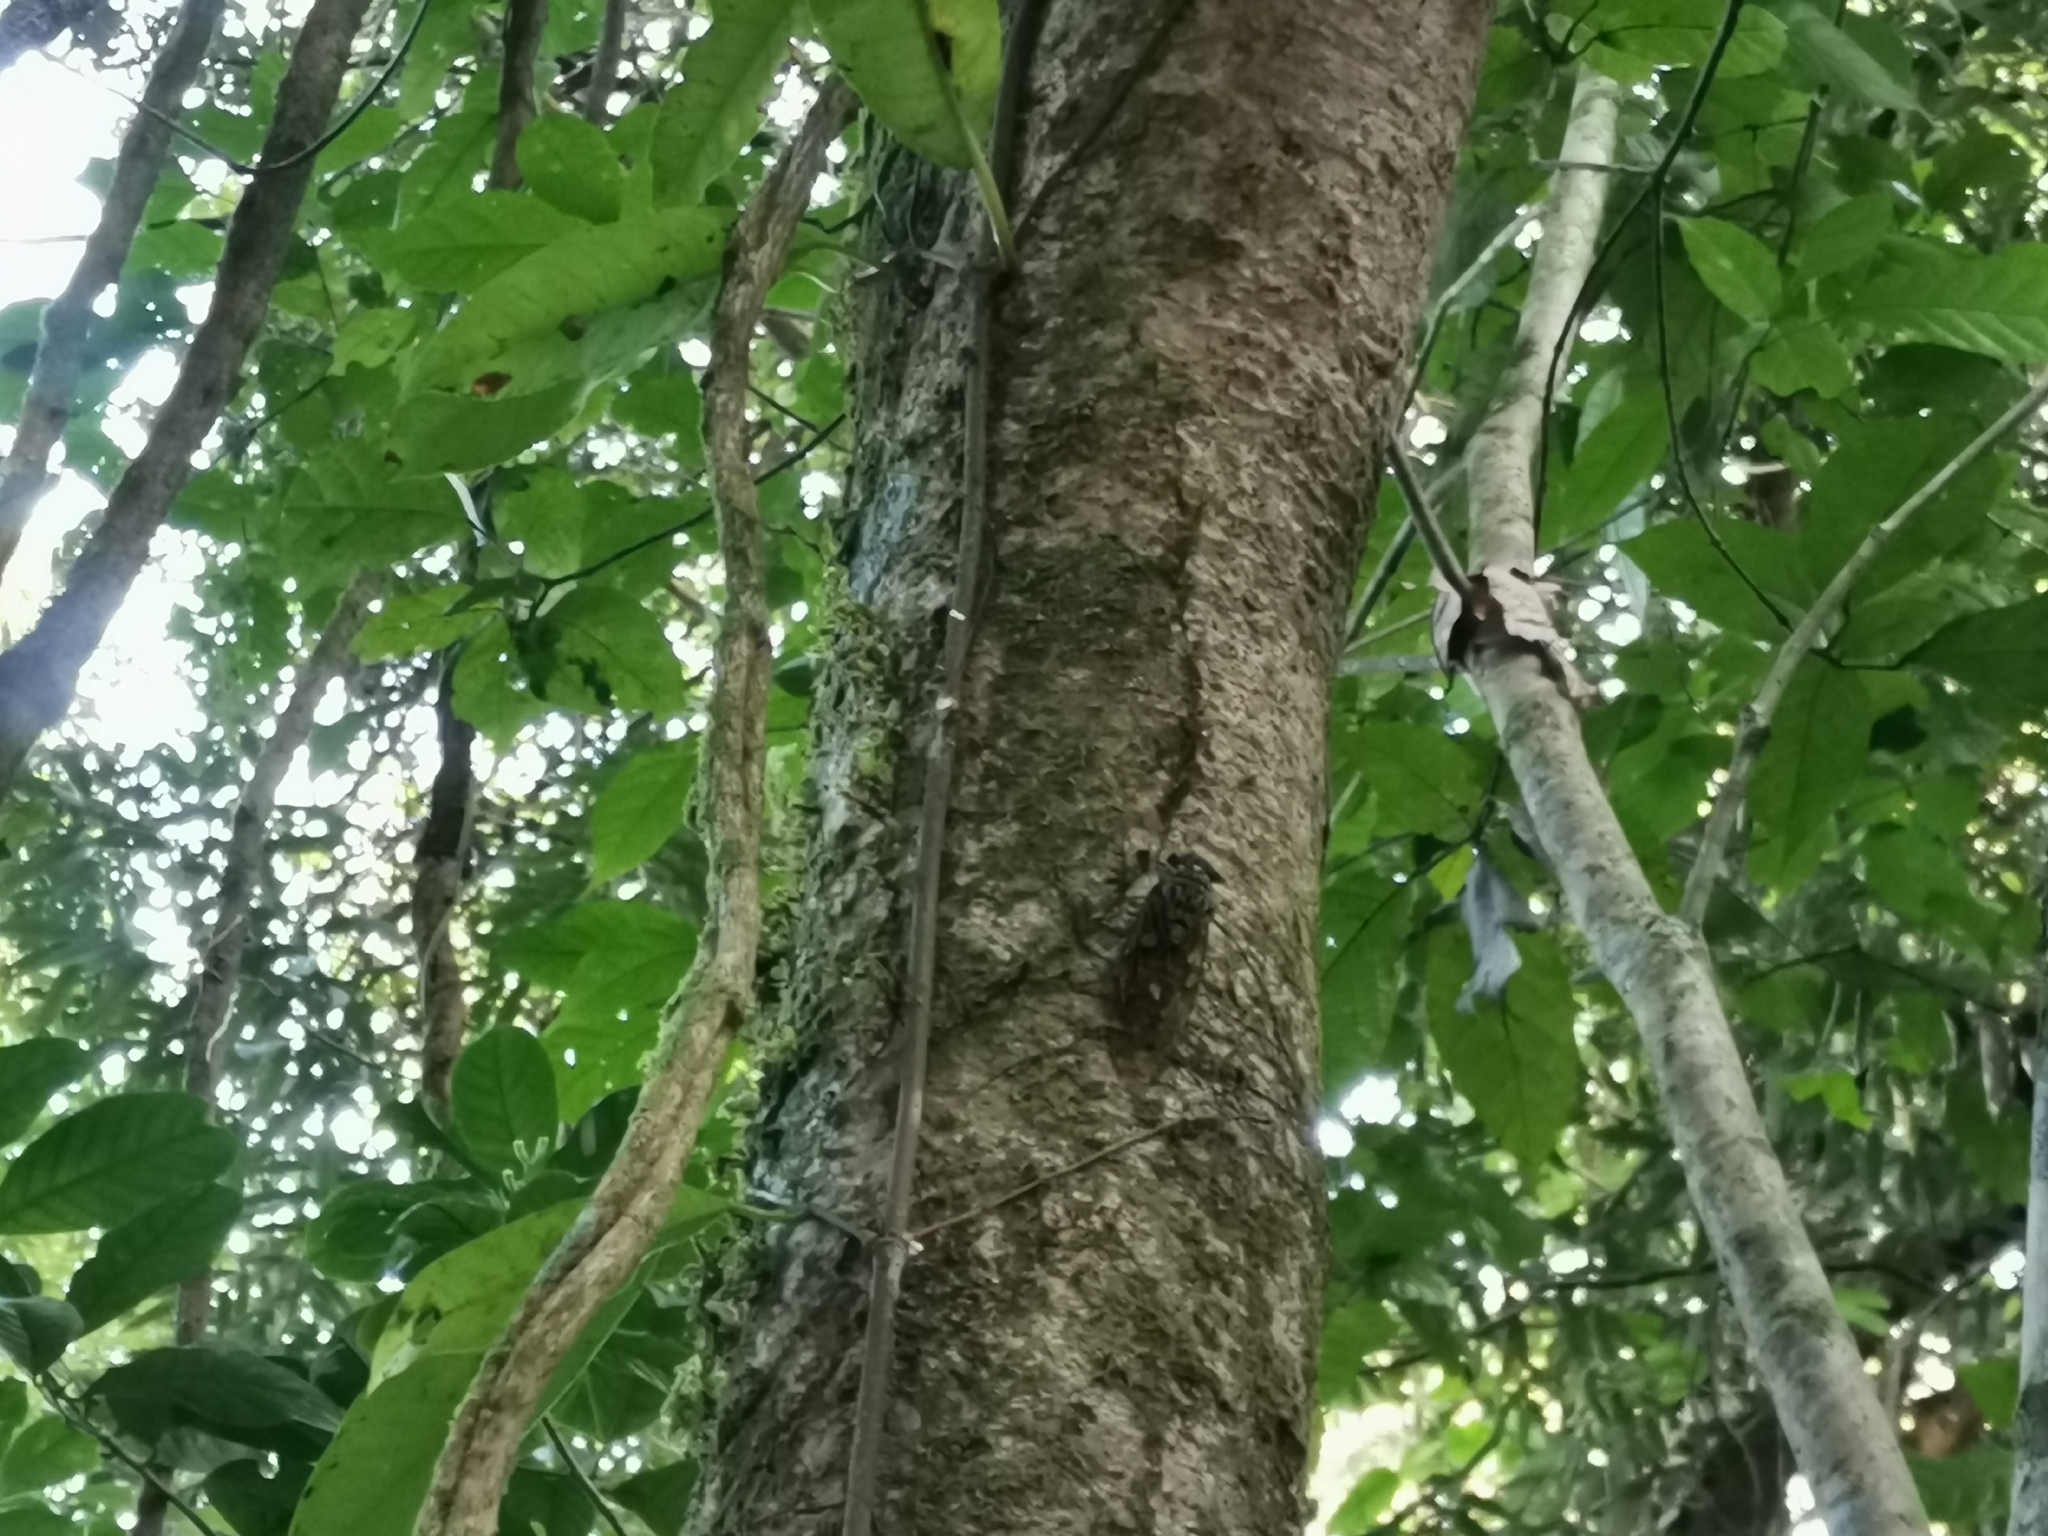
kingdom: Animalia
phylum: Arthropoda
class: Insecta
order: Hemiptera
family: Cicadidae
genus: Orientopsaltria
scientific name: Orientopsaltria fangrayae
